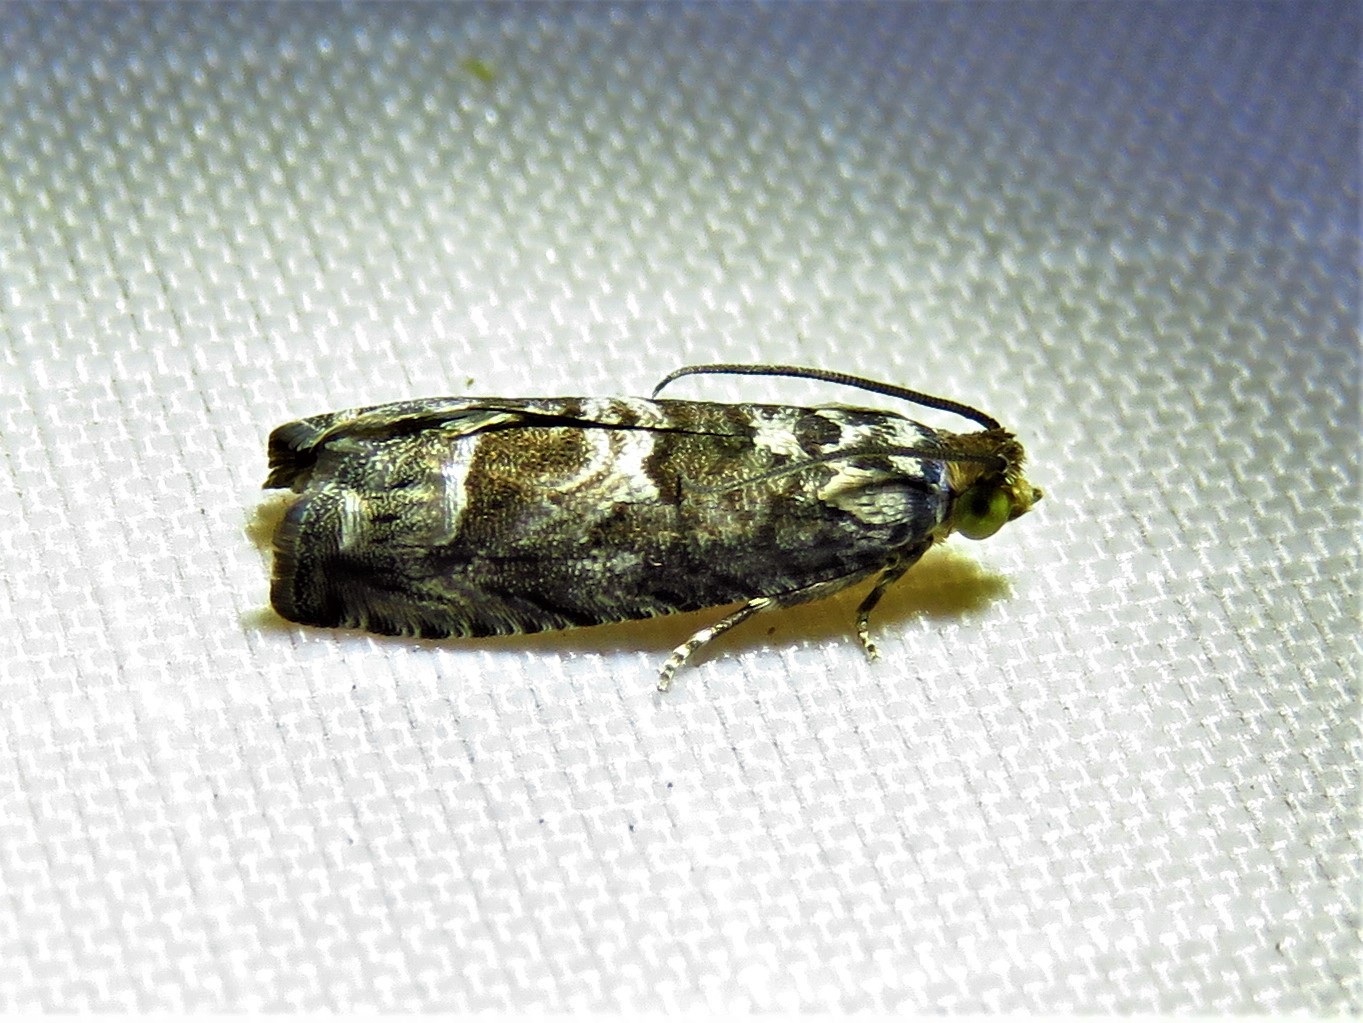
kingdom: Animalia
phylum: Arthropoda
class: Insecta
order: Lepidoptera
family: Tortricidae
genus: Cydia
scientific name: Cydia membrosa
